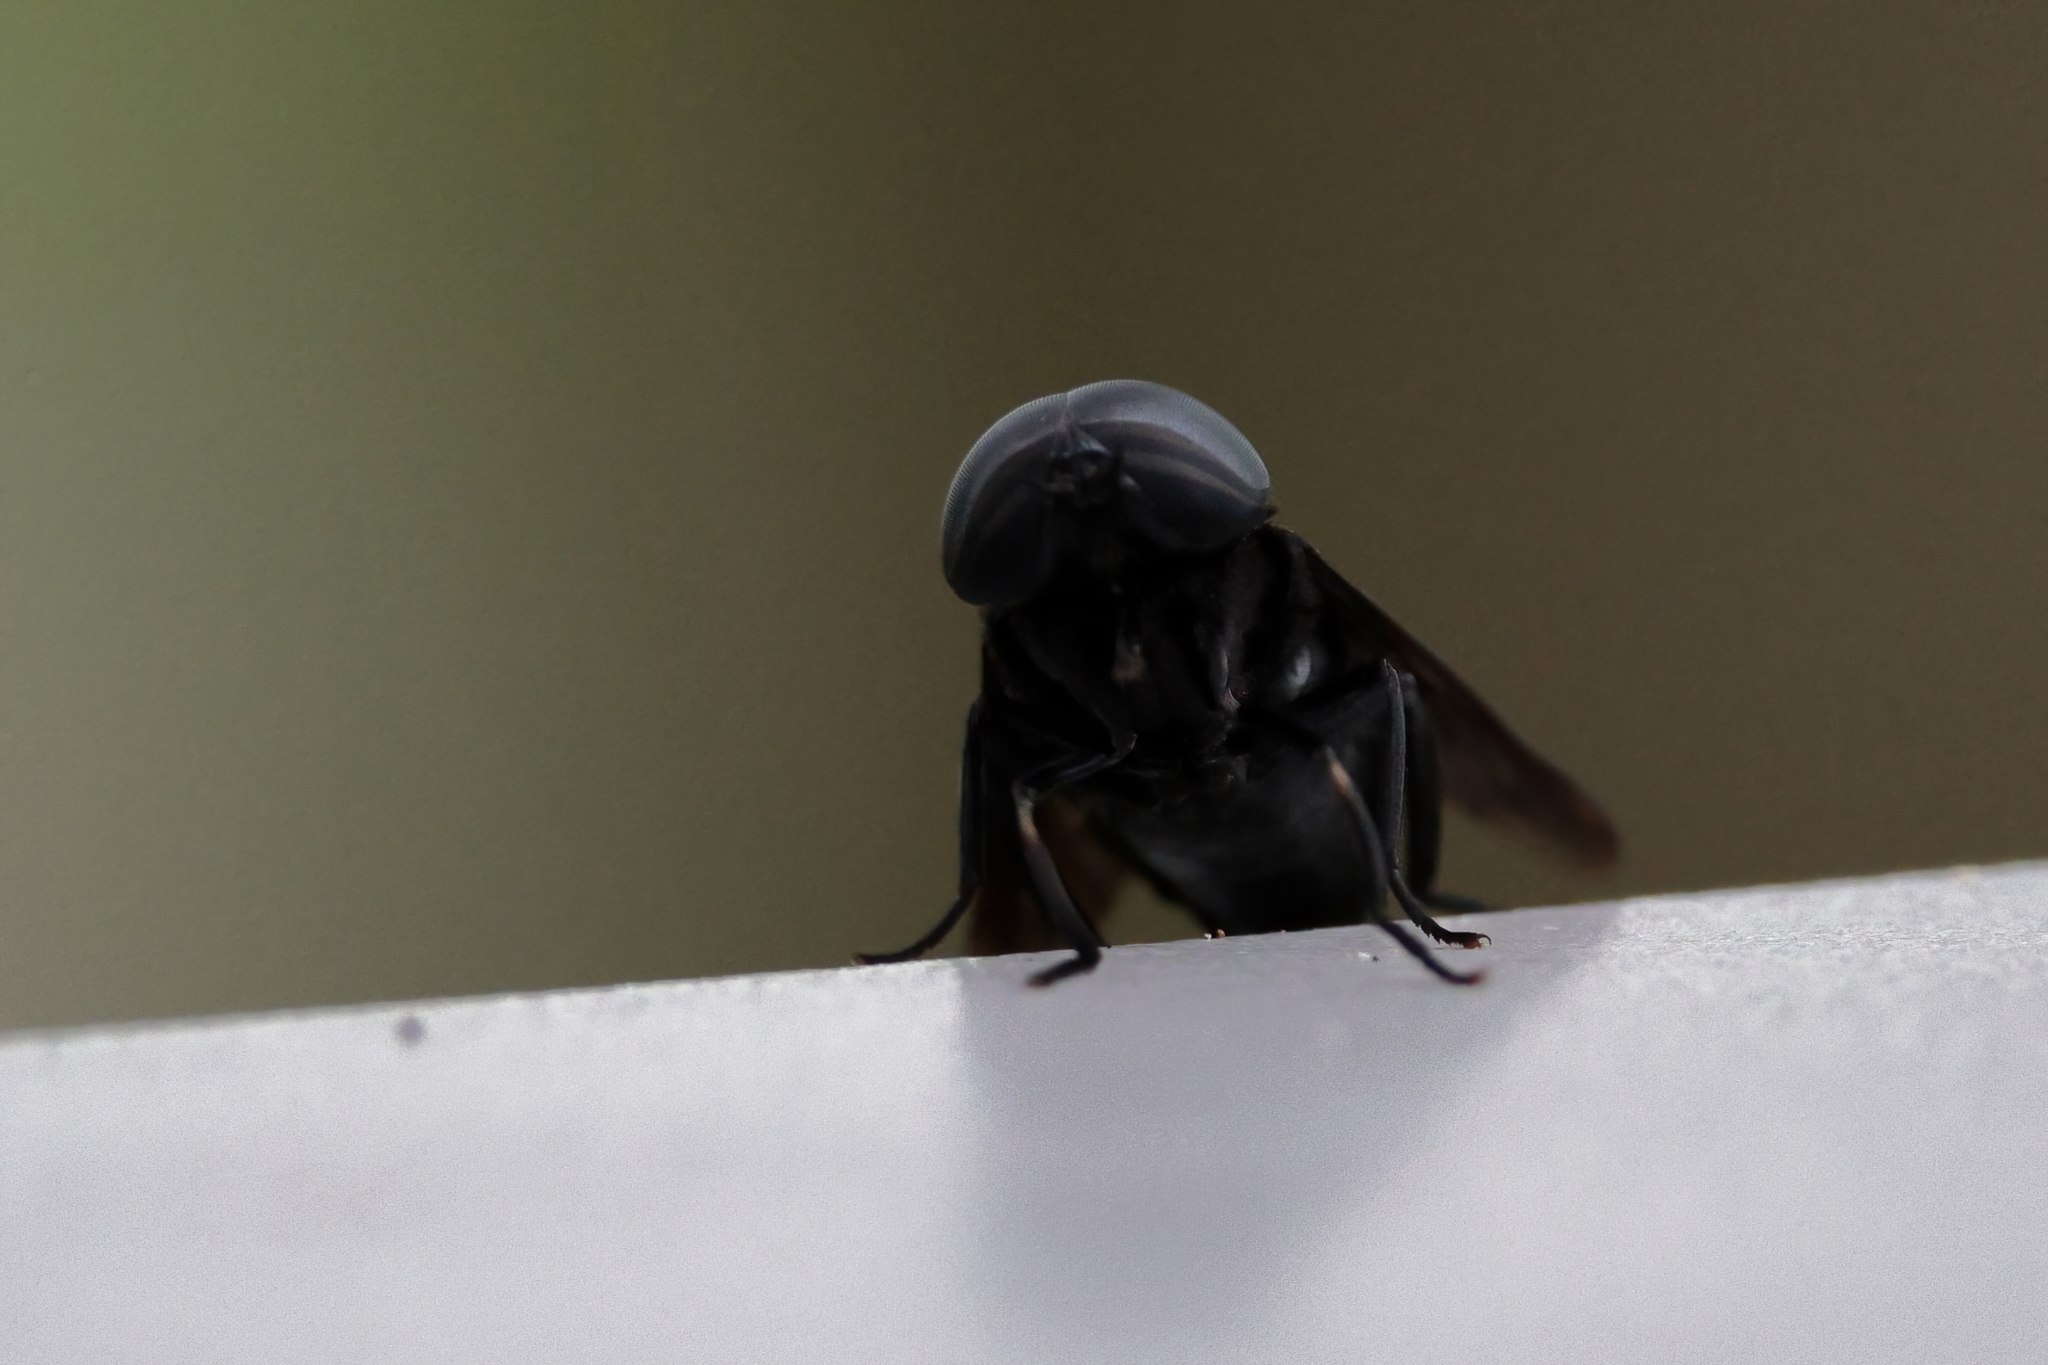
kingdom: Animalia
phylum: Arthropoda
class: Insecta
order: Diptera
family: Tabanidae
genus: Tabanus
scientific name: Tabanus atratus
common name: Black horse fly
